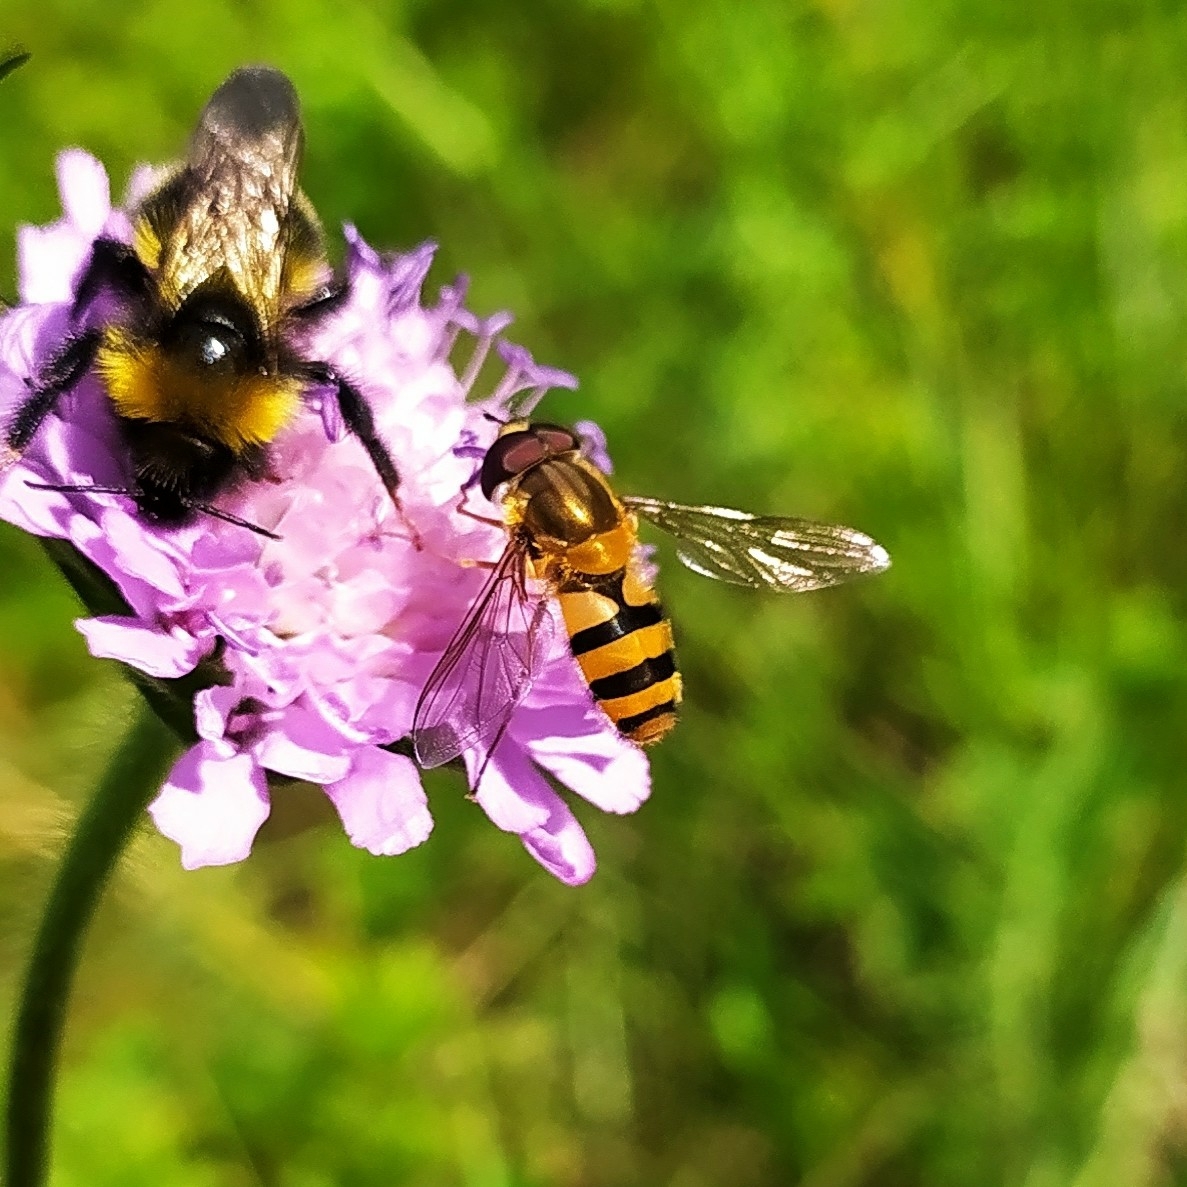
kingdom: Animalia
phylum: Arthropoda
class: Insecta
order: Diptera
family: Syrphidae
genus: Epistrophe
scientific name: Epistrophe grossulariae
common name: Black-horned smoothtail
